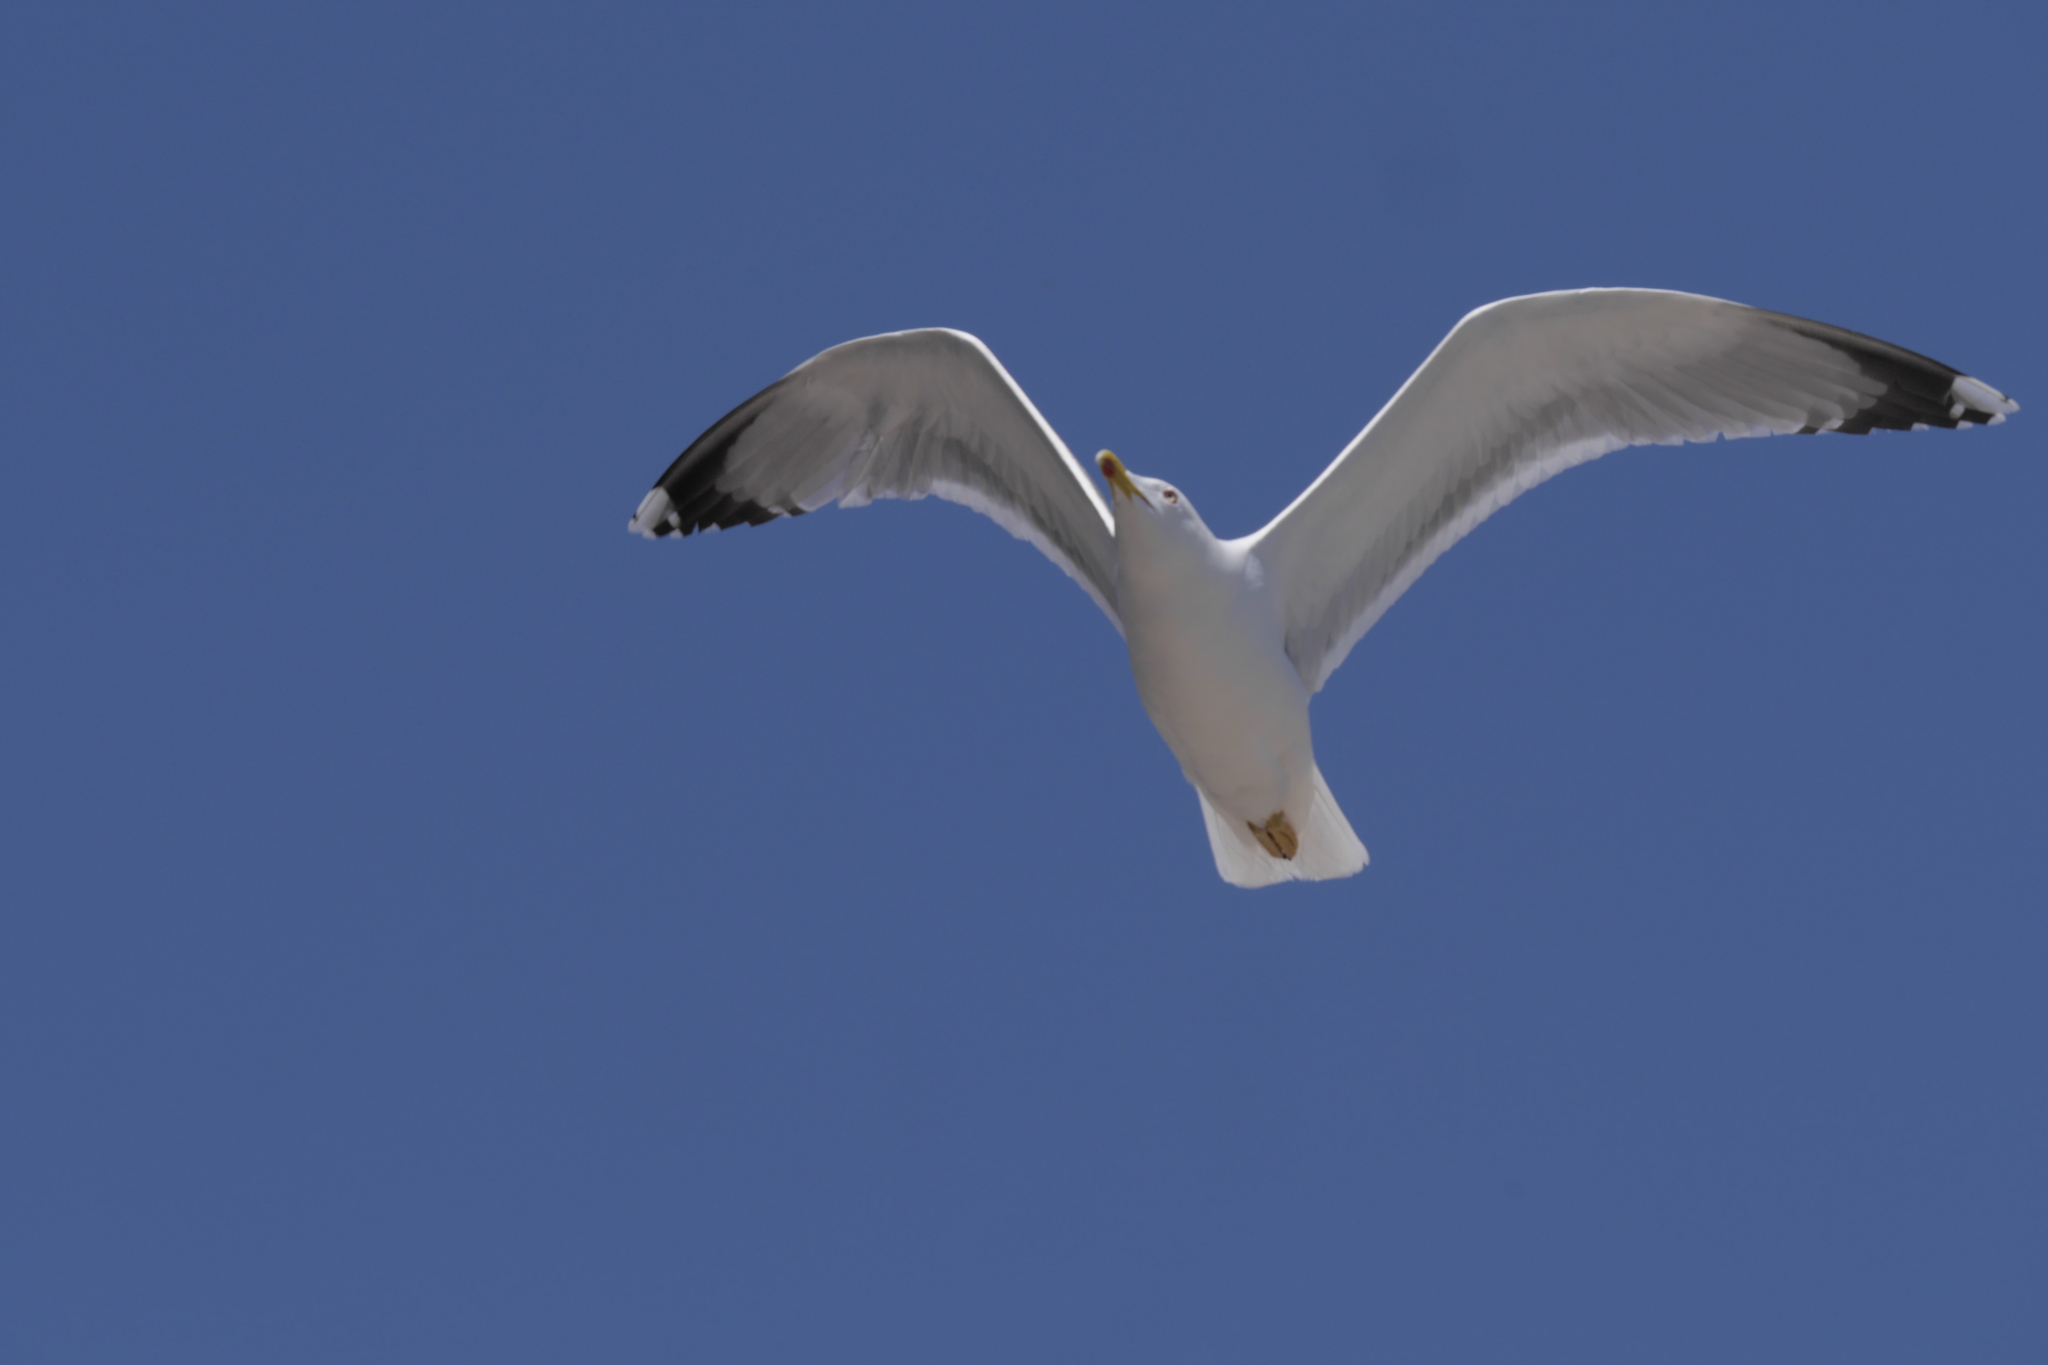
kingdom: Animalia
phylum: Chordata
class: Aves
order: Charadriiformes
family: Laridae
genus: Larus
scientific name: Larus michahellis
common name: Yellow-legged gull
